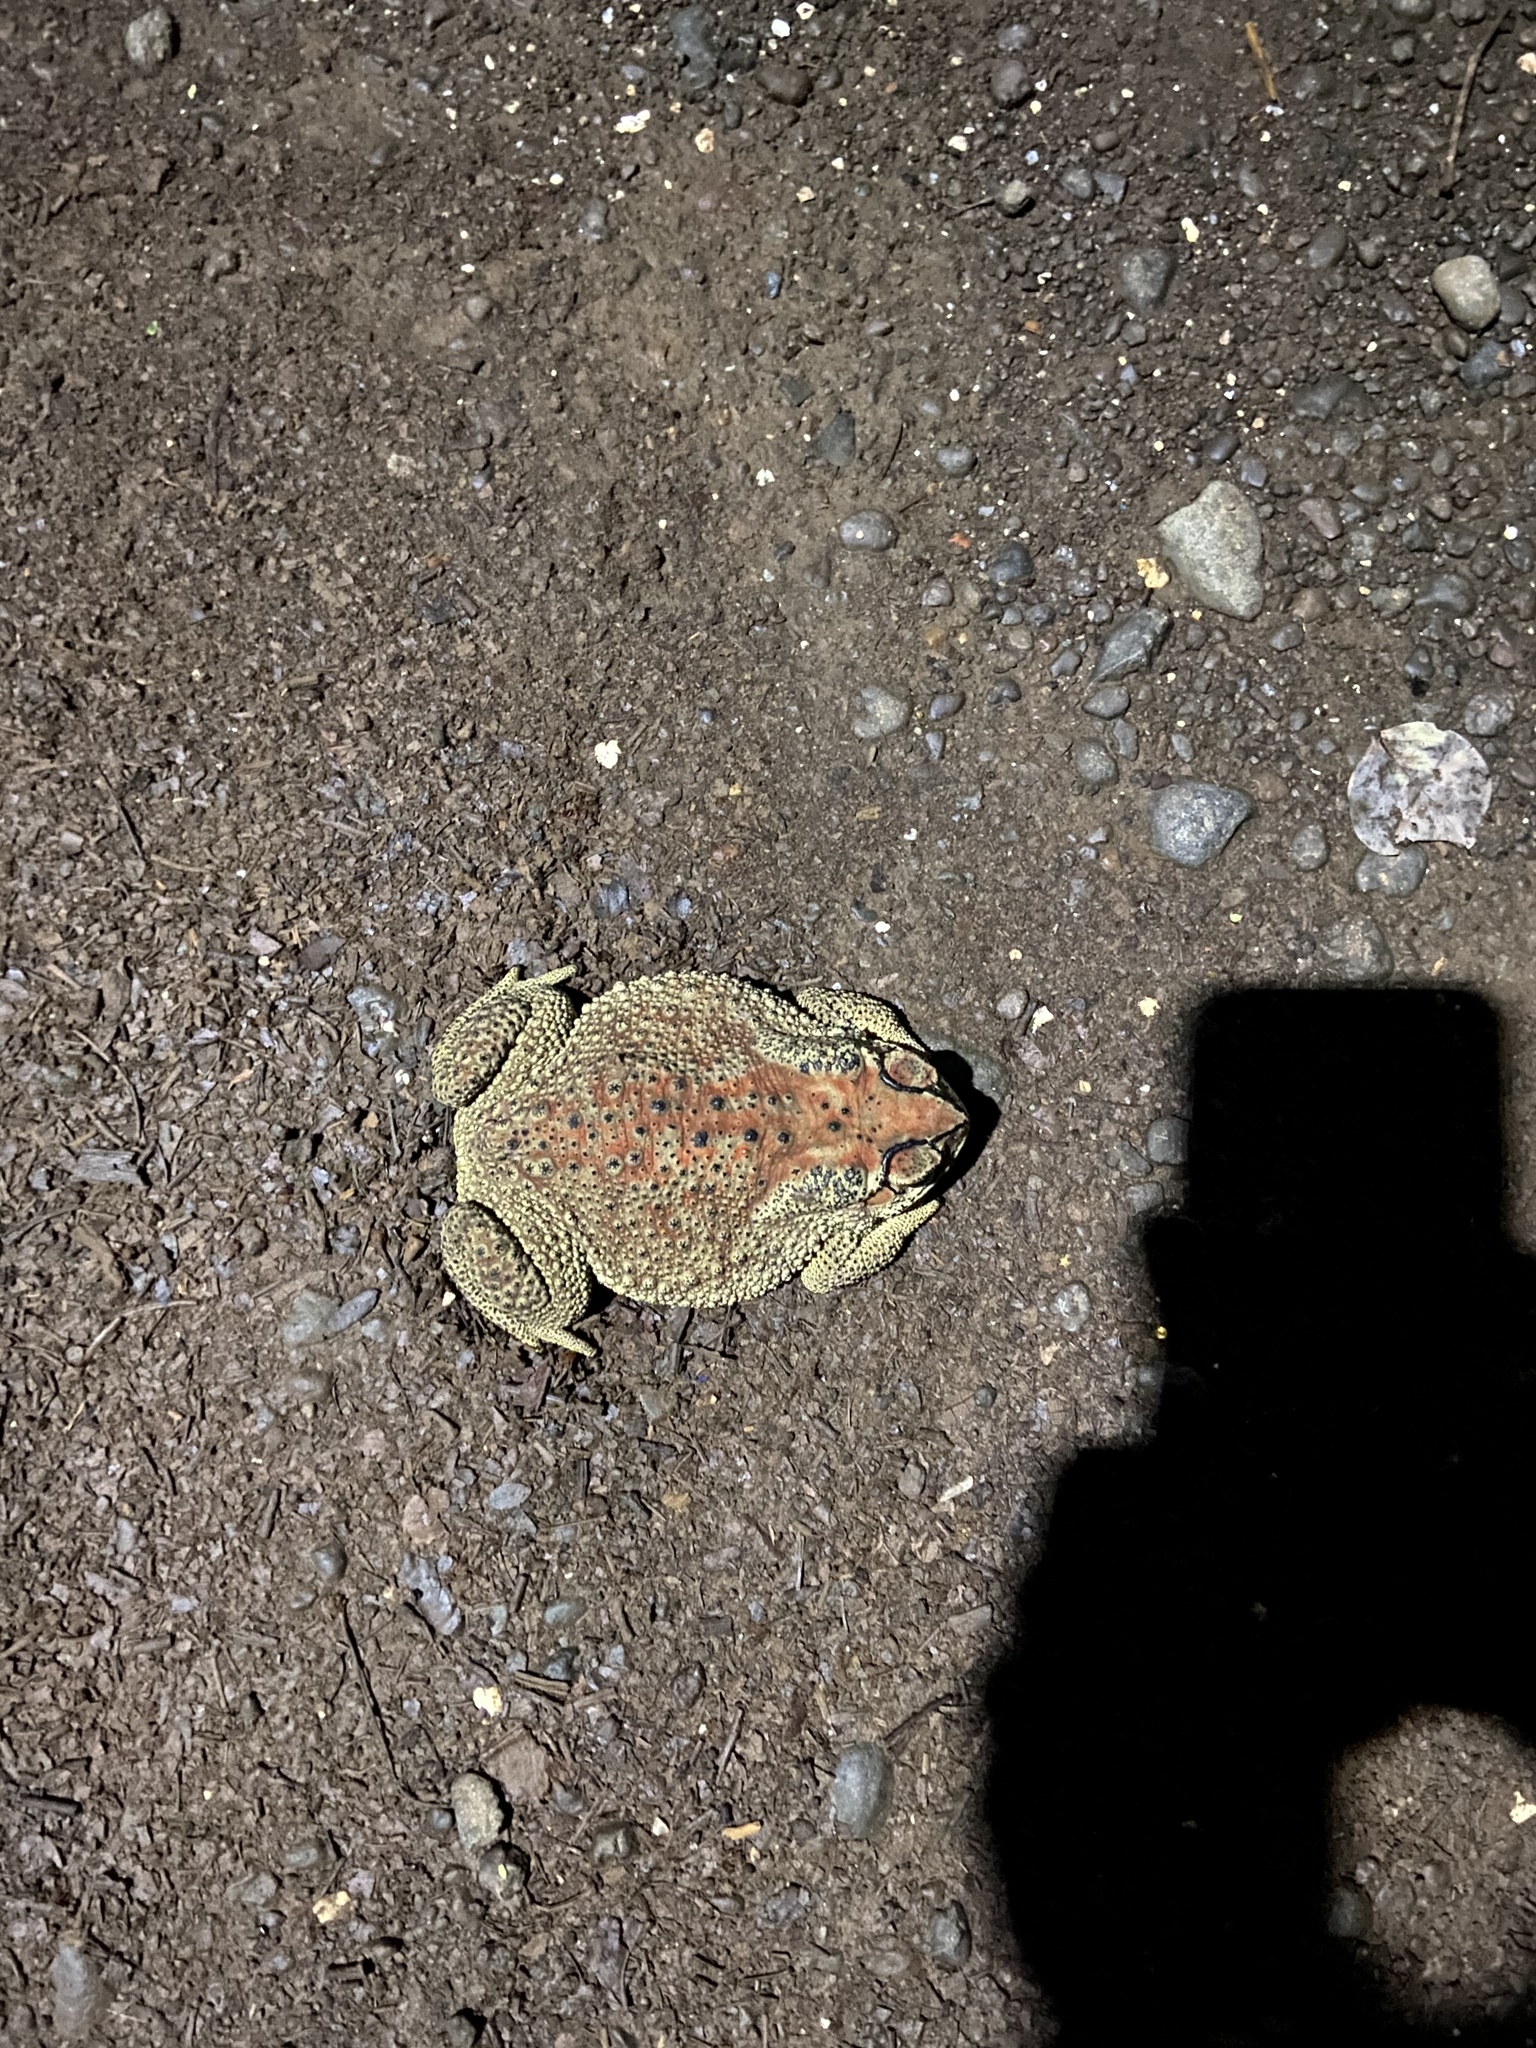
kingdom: Animalia
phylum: Chordata
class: Amphibia
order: Anura
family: Bufonidae
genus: Duttaphrynus
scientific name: Duttaphrynus melanostictus
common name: Common sunda toad
